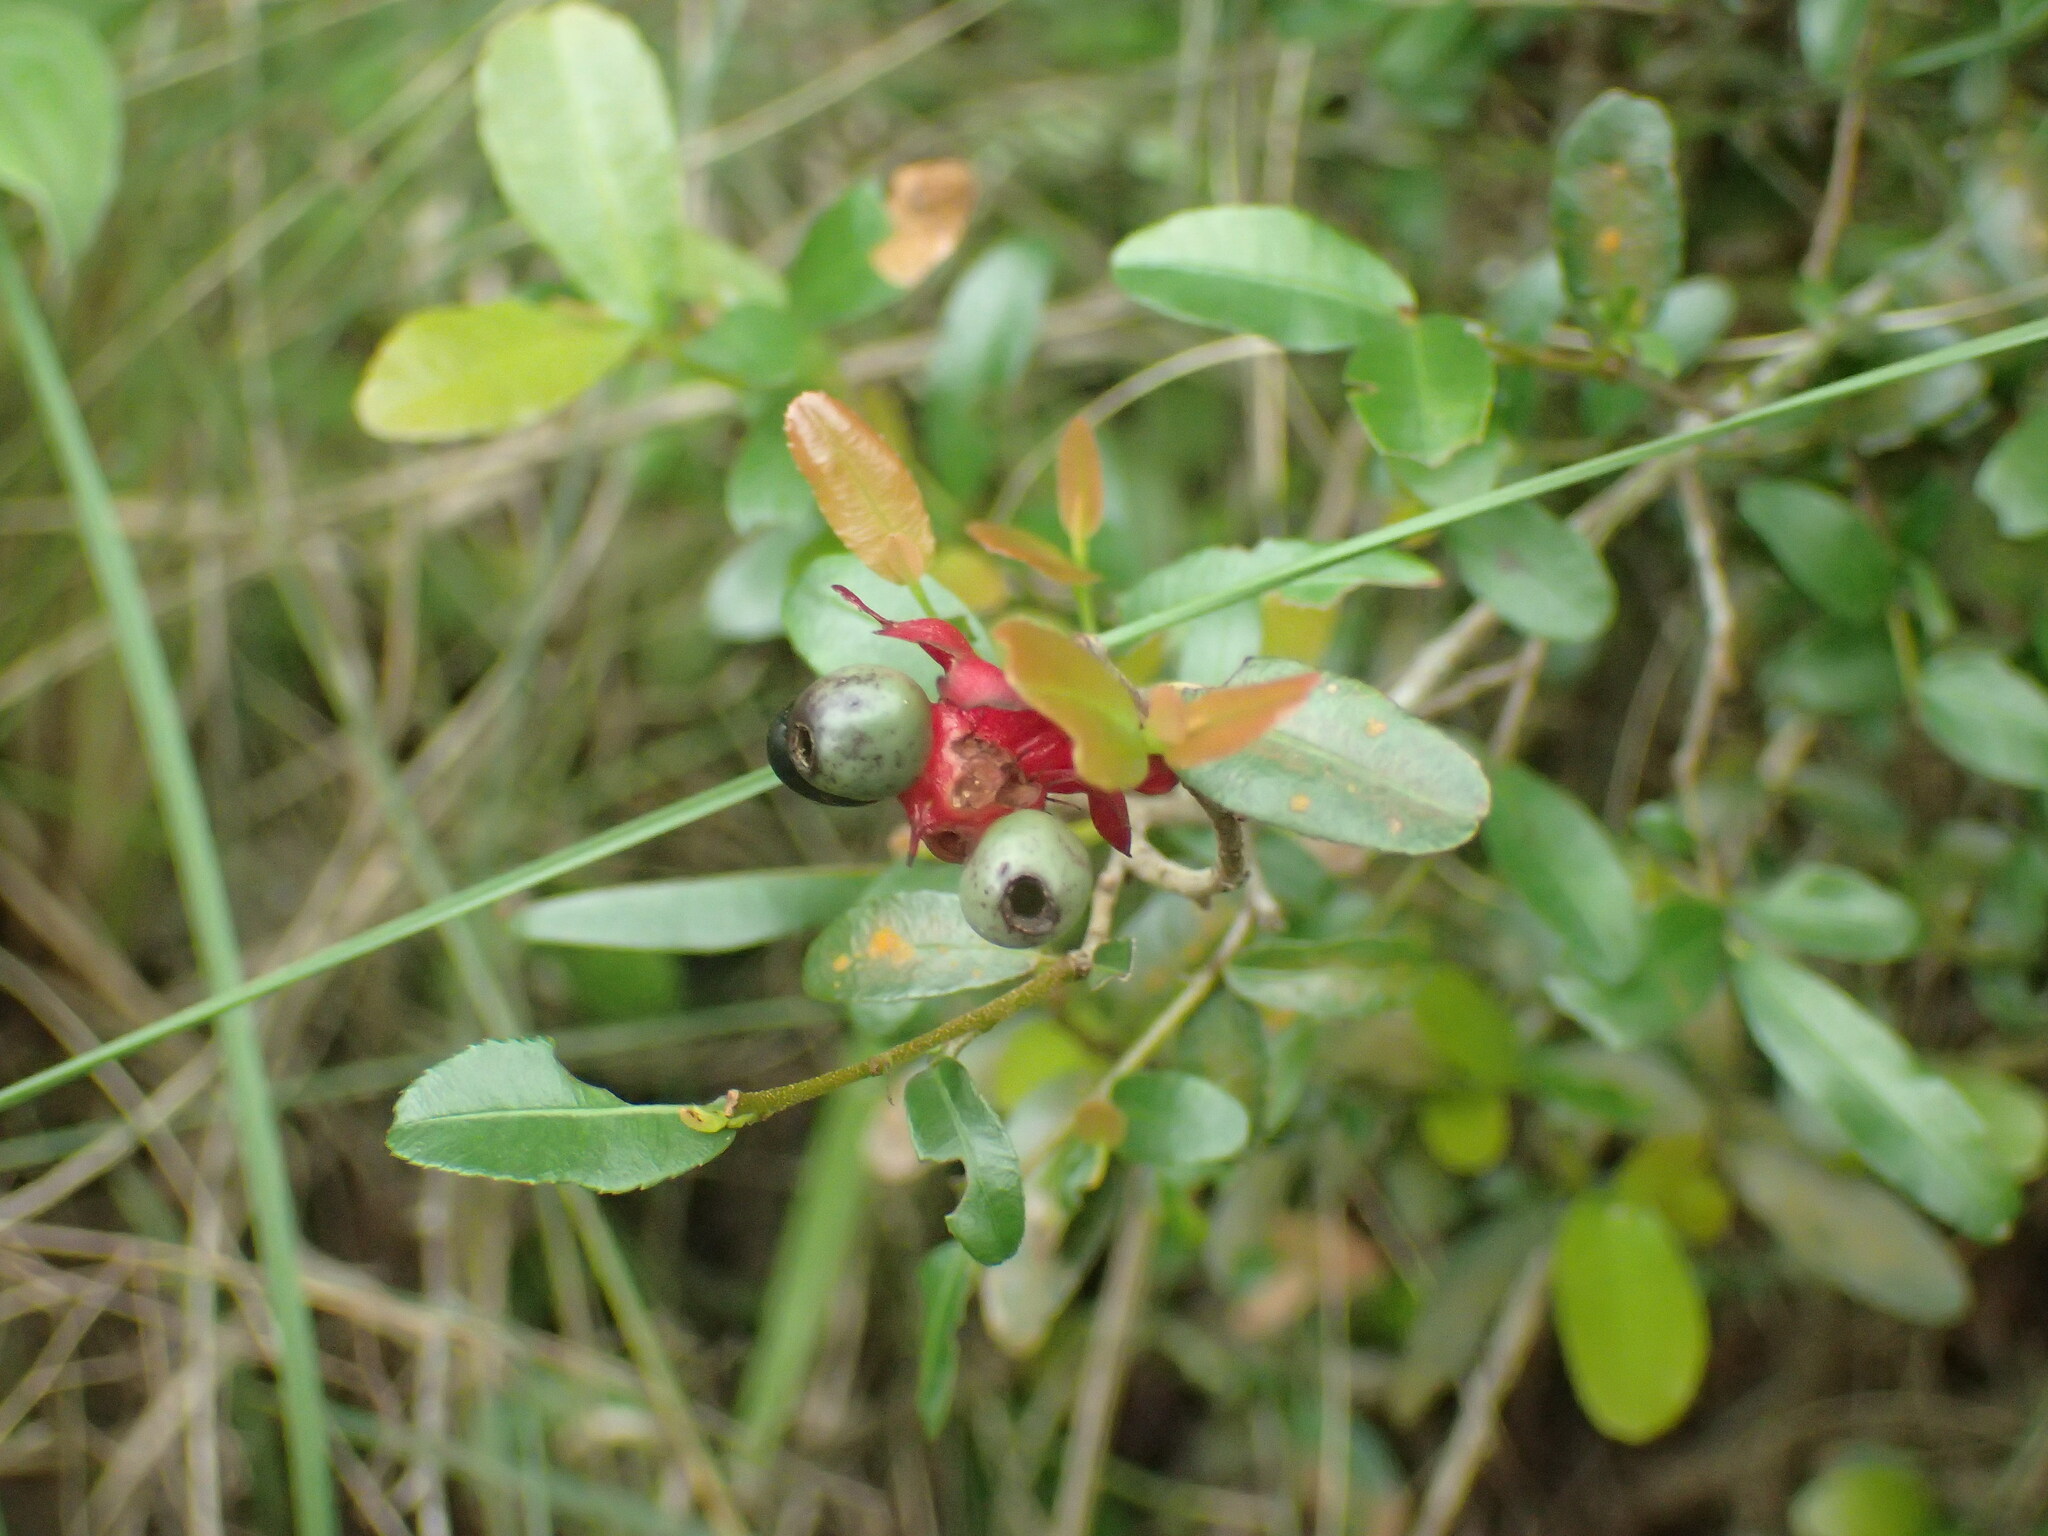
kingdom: Plantae
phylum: Tracheophyta
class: Magnoliopsida
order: Malpighiales
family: Ochnaceae
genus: Ochna
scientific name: Ochna serrulata
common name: Mickey mouse plant
